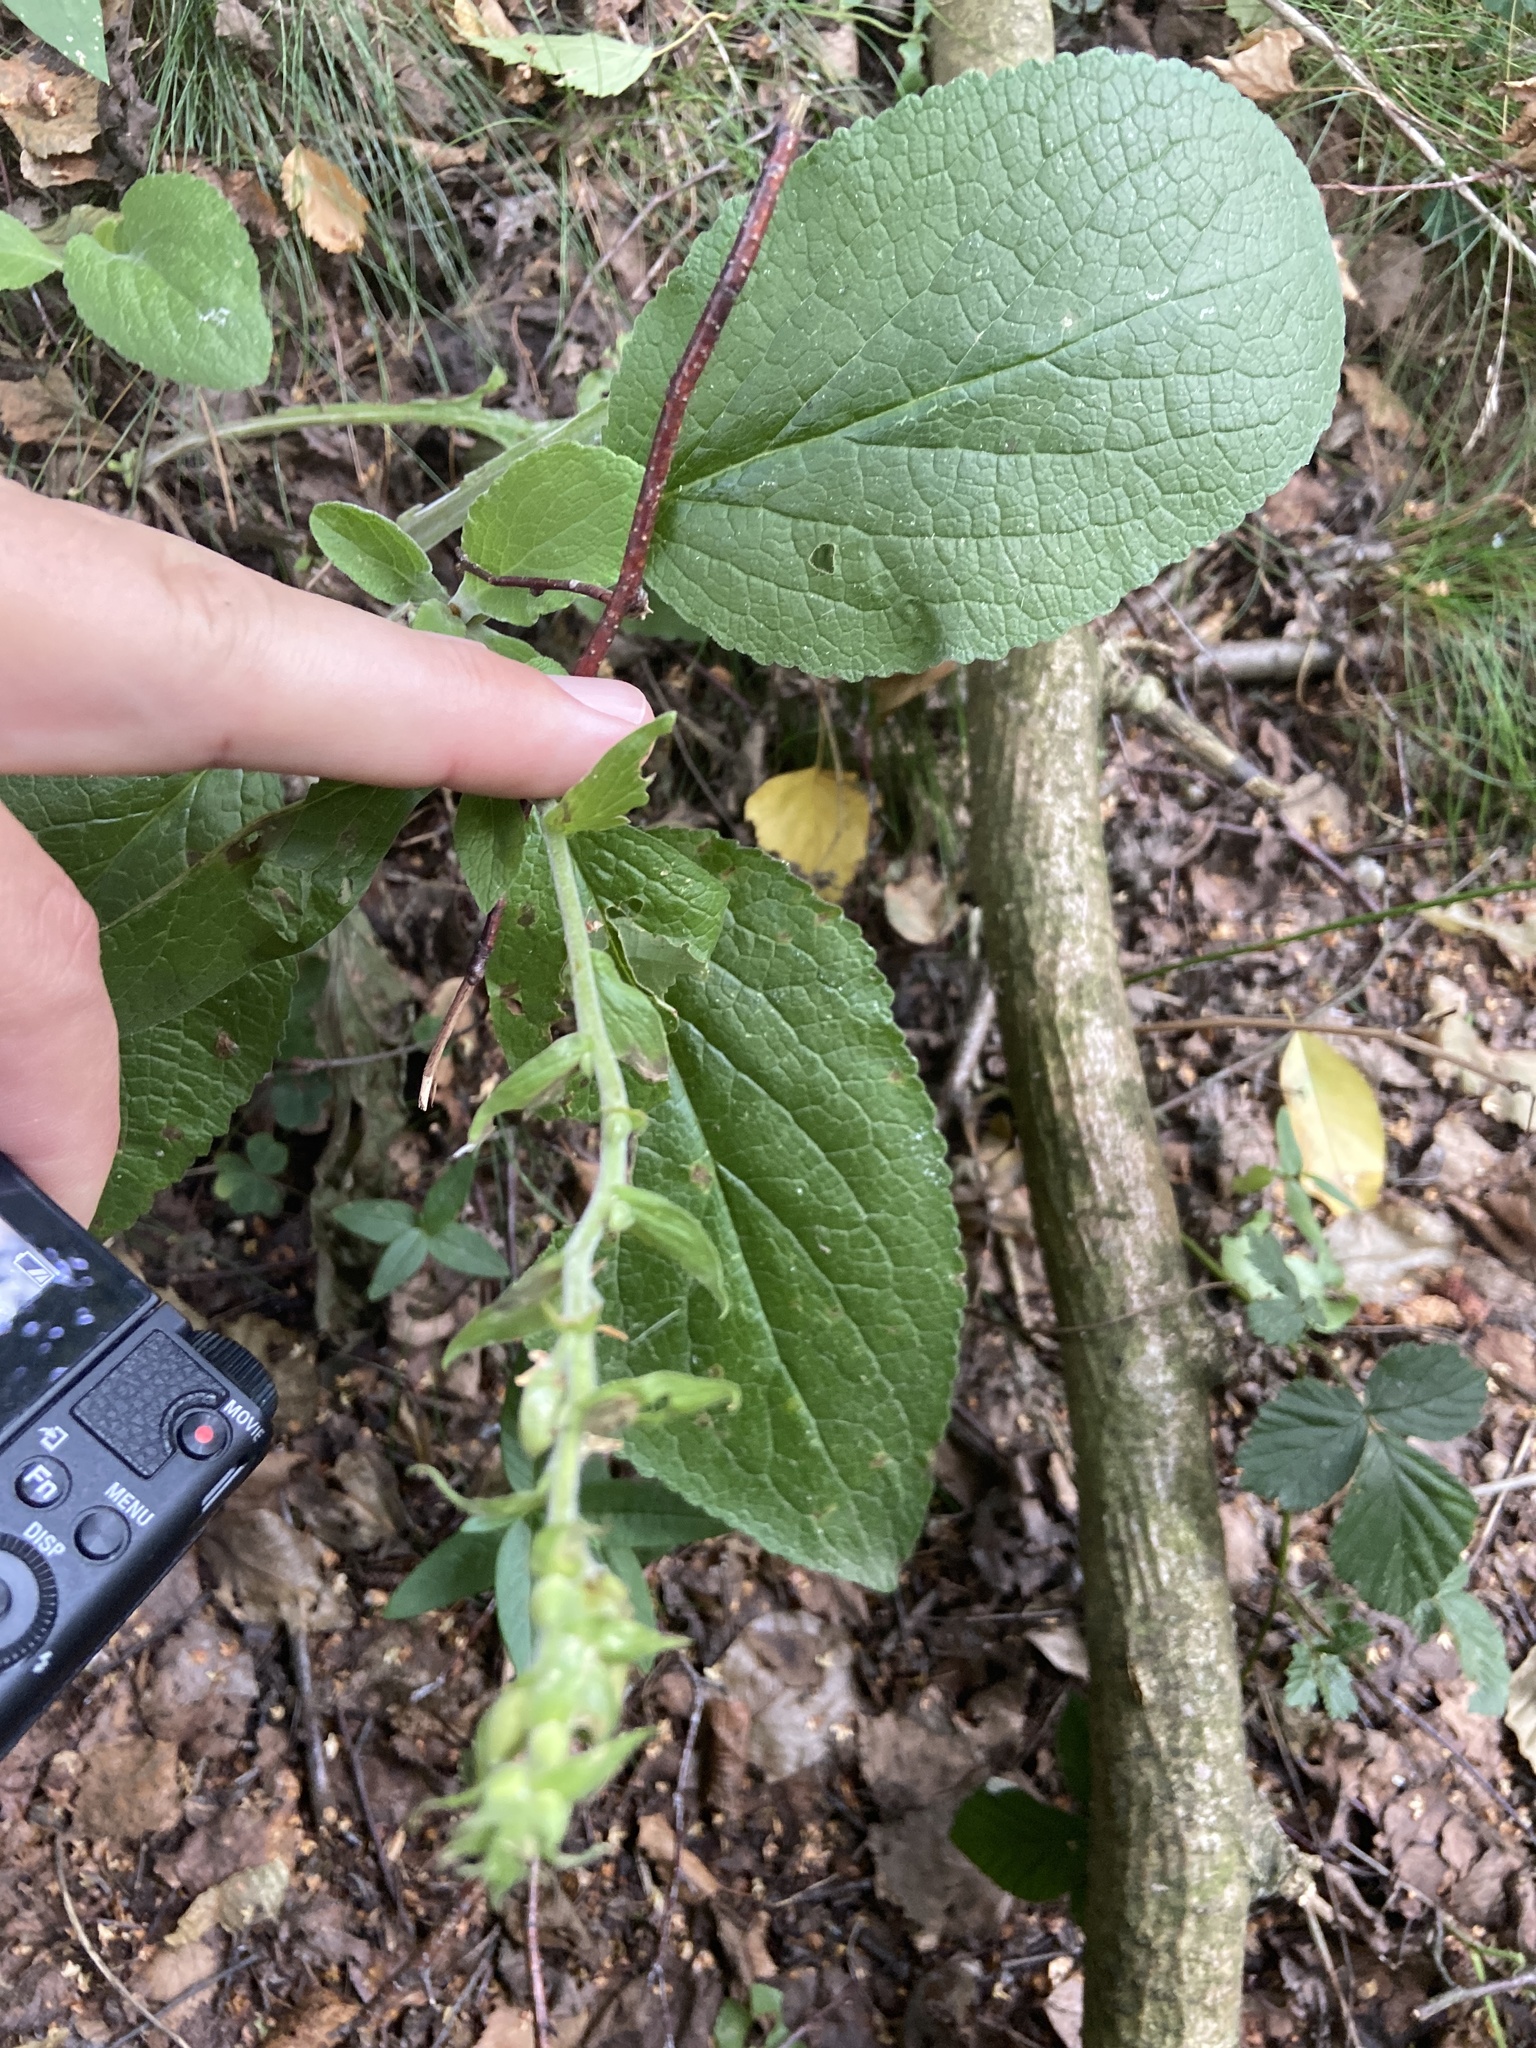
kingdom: Plantae
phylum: Tracheophyta
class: Magnoliopsida
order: Lamiales
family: Plantaginaceae
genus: Digitalis
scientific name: Digitalis purpurea
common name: Foxglove
